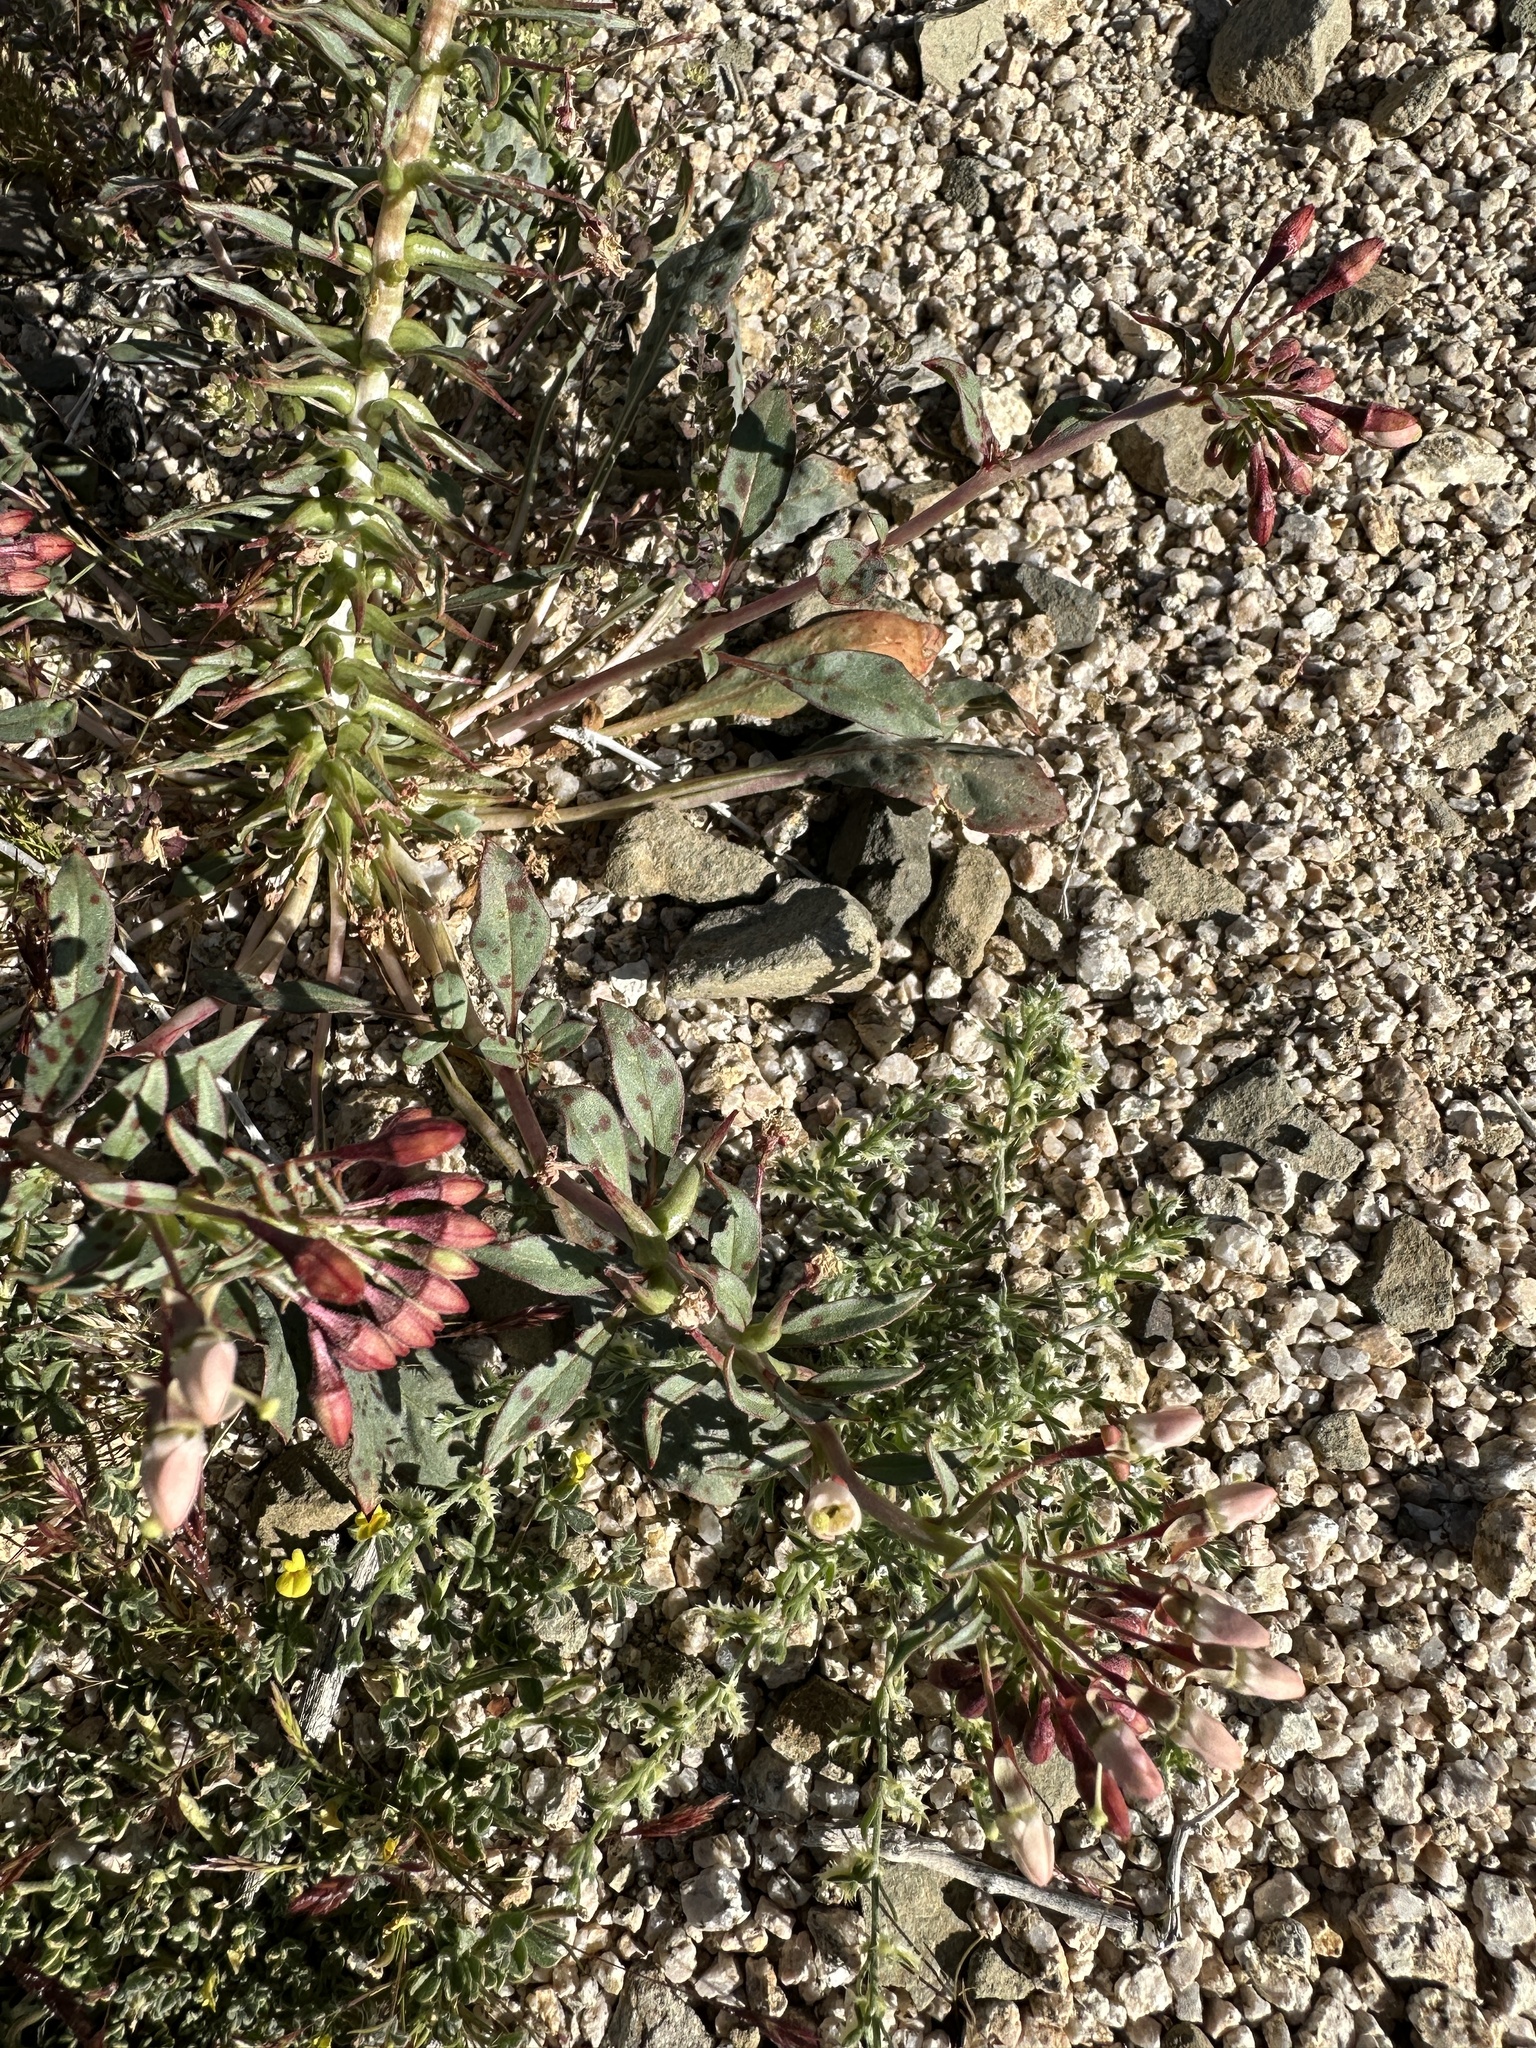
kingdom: Plantae
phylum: Tracheophyta
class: Magnoliopsida
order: Myrtales
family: Onagraceae
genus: Eremothera
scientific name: Eremothera boothii
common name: Booth's evening primrose
